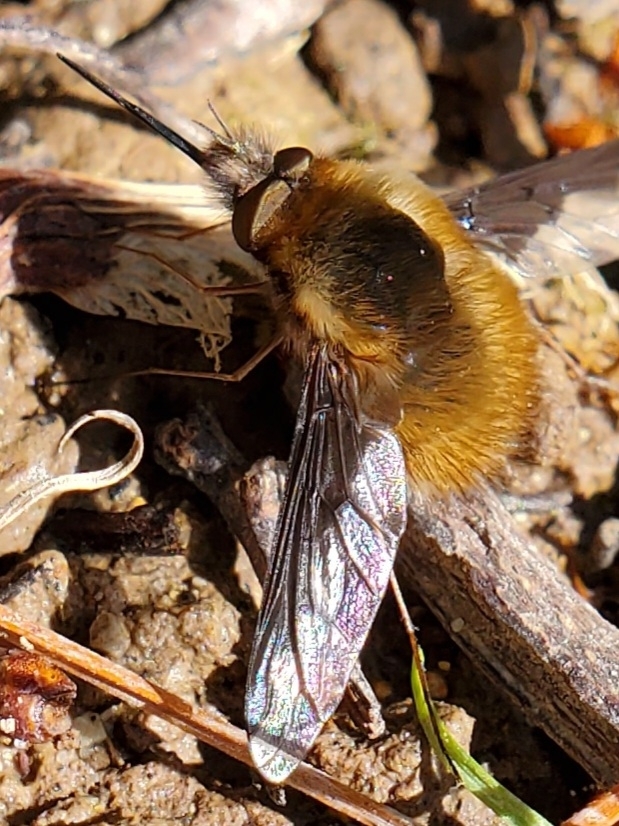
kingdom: Animalia
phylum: Arthropoda
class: Insecta
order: Diptera
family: Bombyliidae
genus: Bombylius
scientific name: Bombylius major
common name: Bee fly
